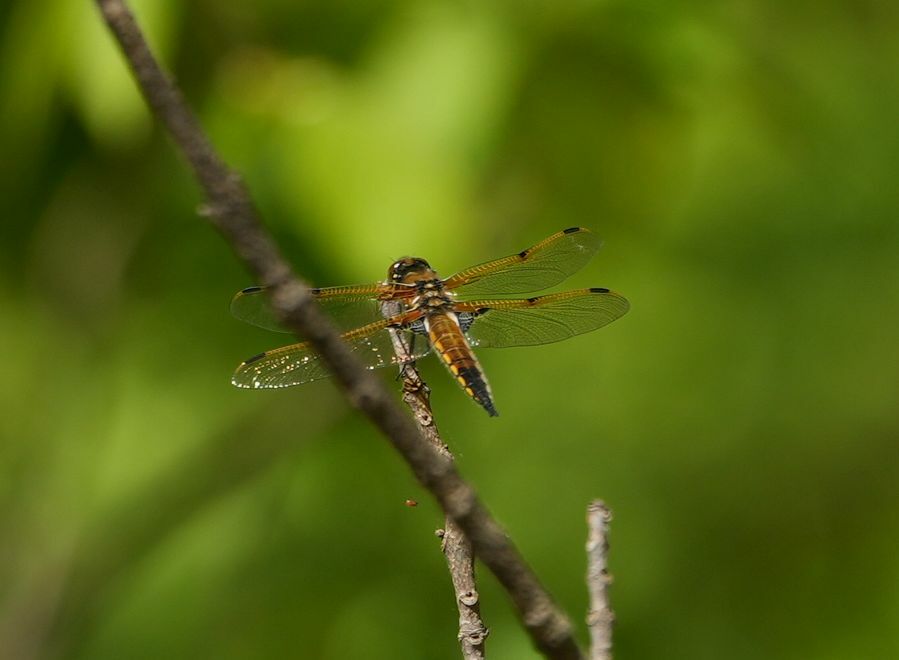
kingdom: Animalia
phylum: Arthropoda
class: Insecta
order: Odonata
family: Libellulidae
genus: Libellula
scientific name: Libellula quadrimaculata
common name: Four-spotted chaser
